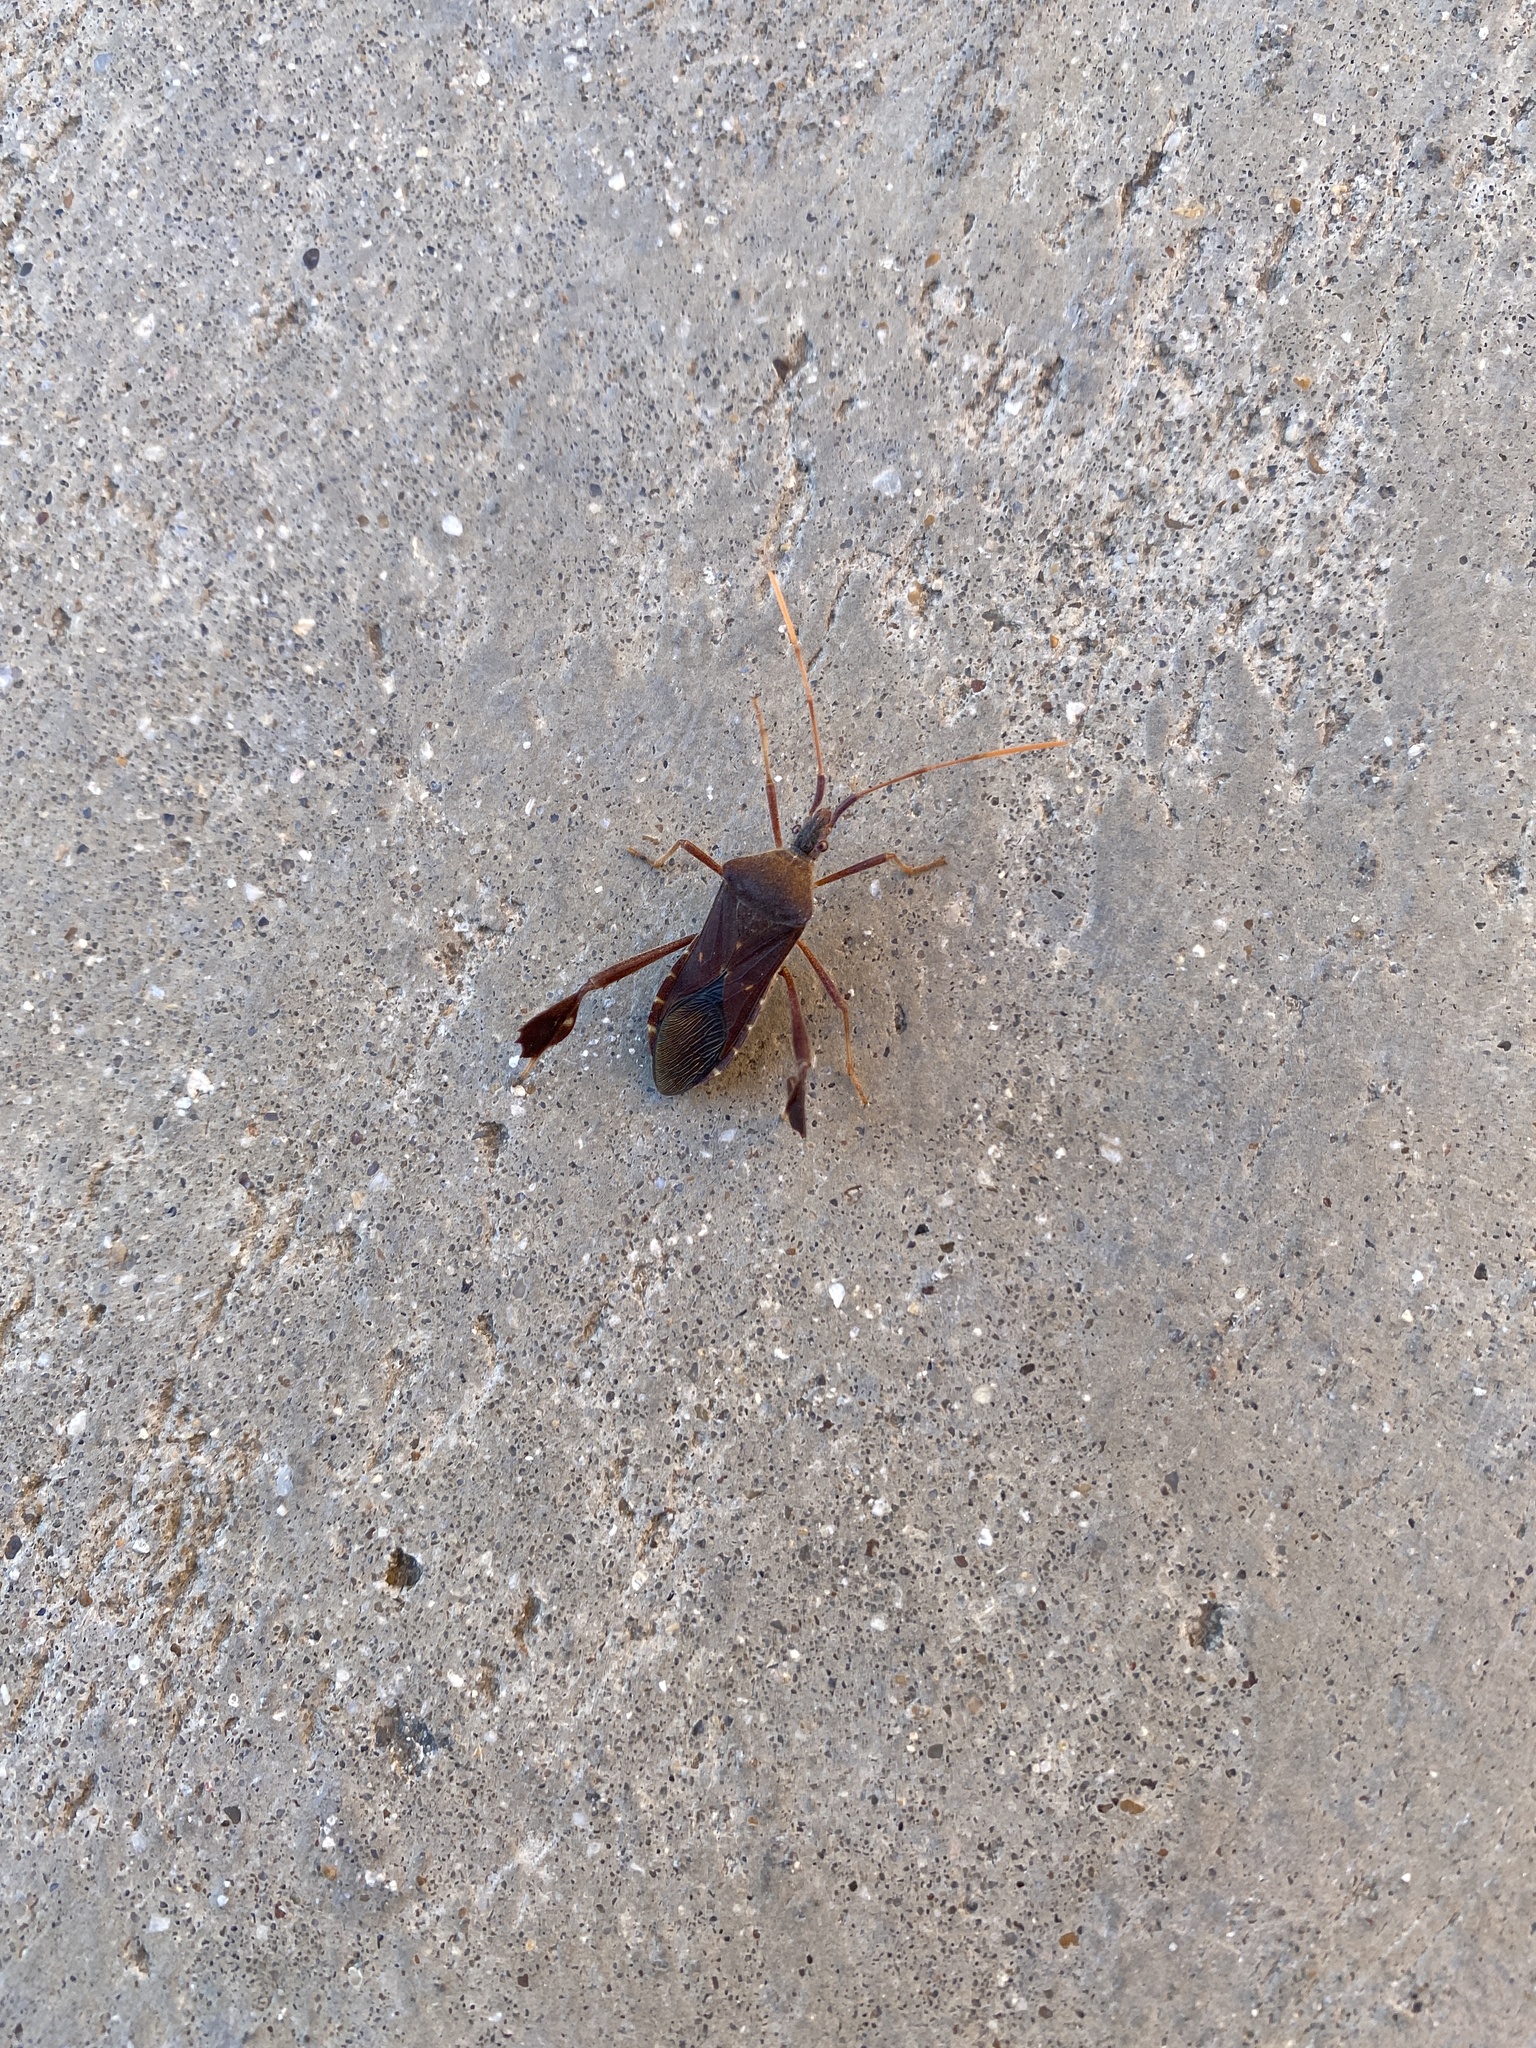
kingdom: Animalia
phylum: Arthropoda
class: Insecta
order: Hemiptera
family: Coreidae
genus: Leptoglossus
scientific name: Leptoglossus oppositus
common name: Northern leaf-footed bug
